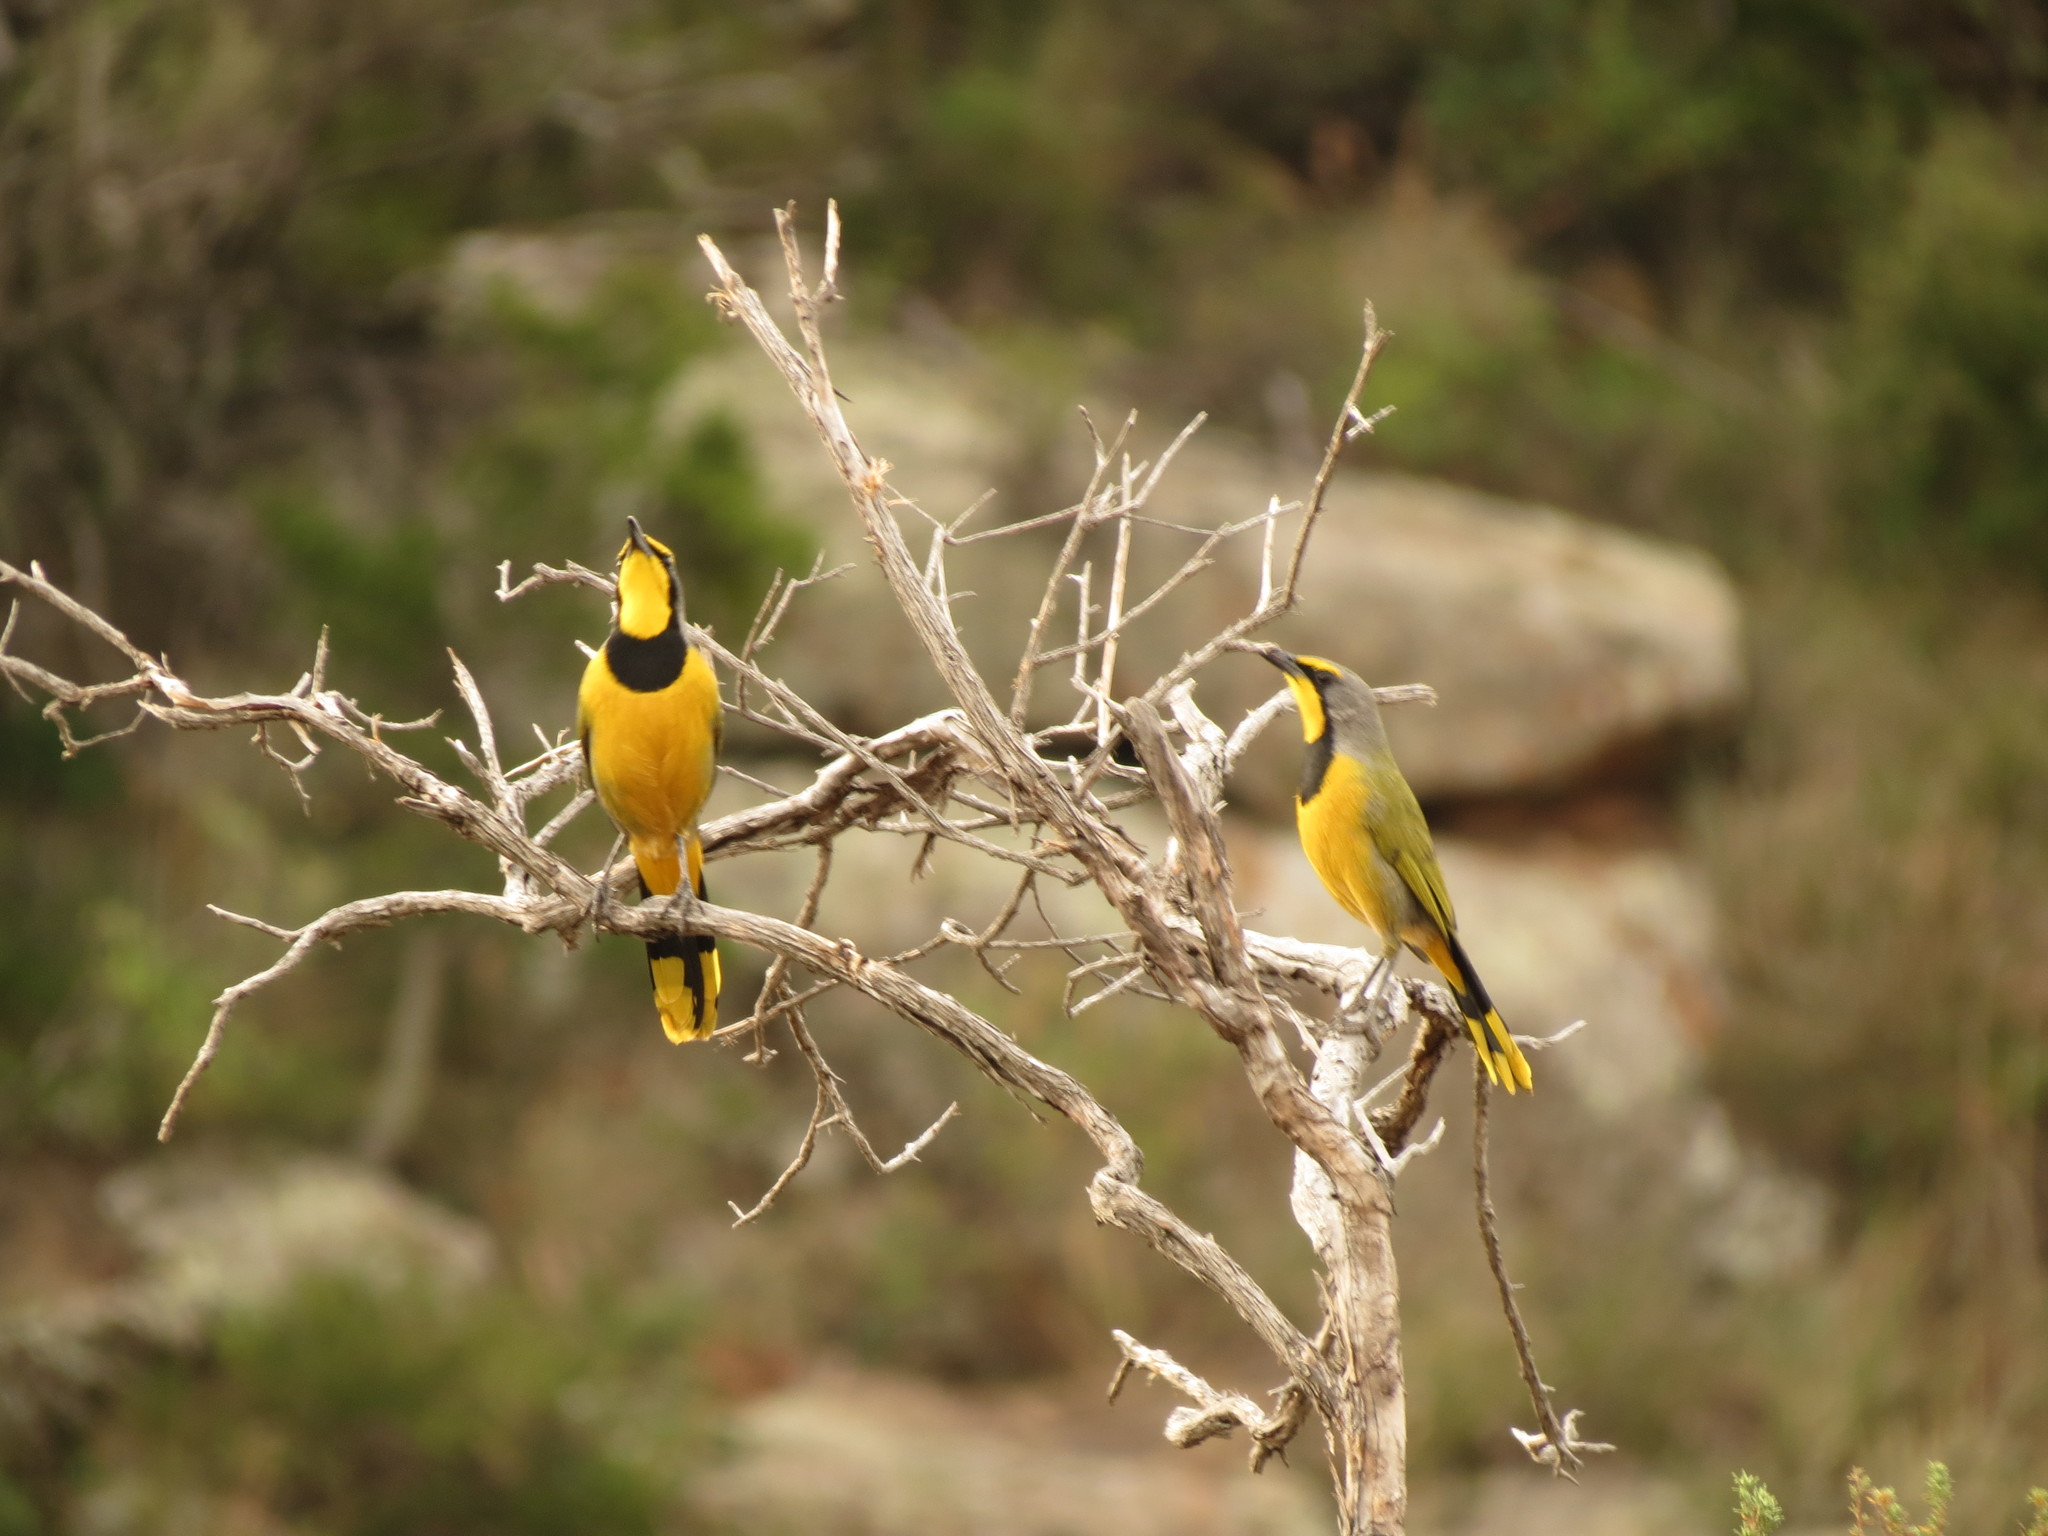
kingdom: Animalia
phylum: Chordata
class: Aves
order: Passeriformes
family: Malaconotidae
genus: Telophorus
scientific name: Telophorus zeylonus
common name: Bokmakierie
